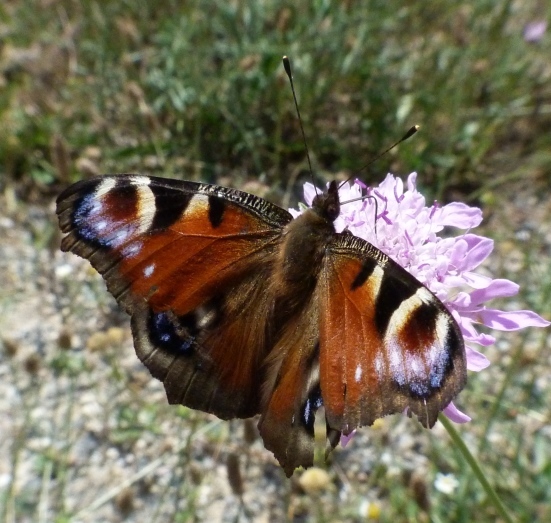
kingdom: Animalia
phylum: Arthropoda
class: Insecta
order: Lepidoptera
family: Nymphalidae
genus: Aglais
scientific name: Aglais io
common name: Peacock
